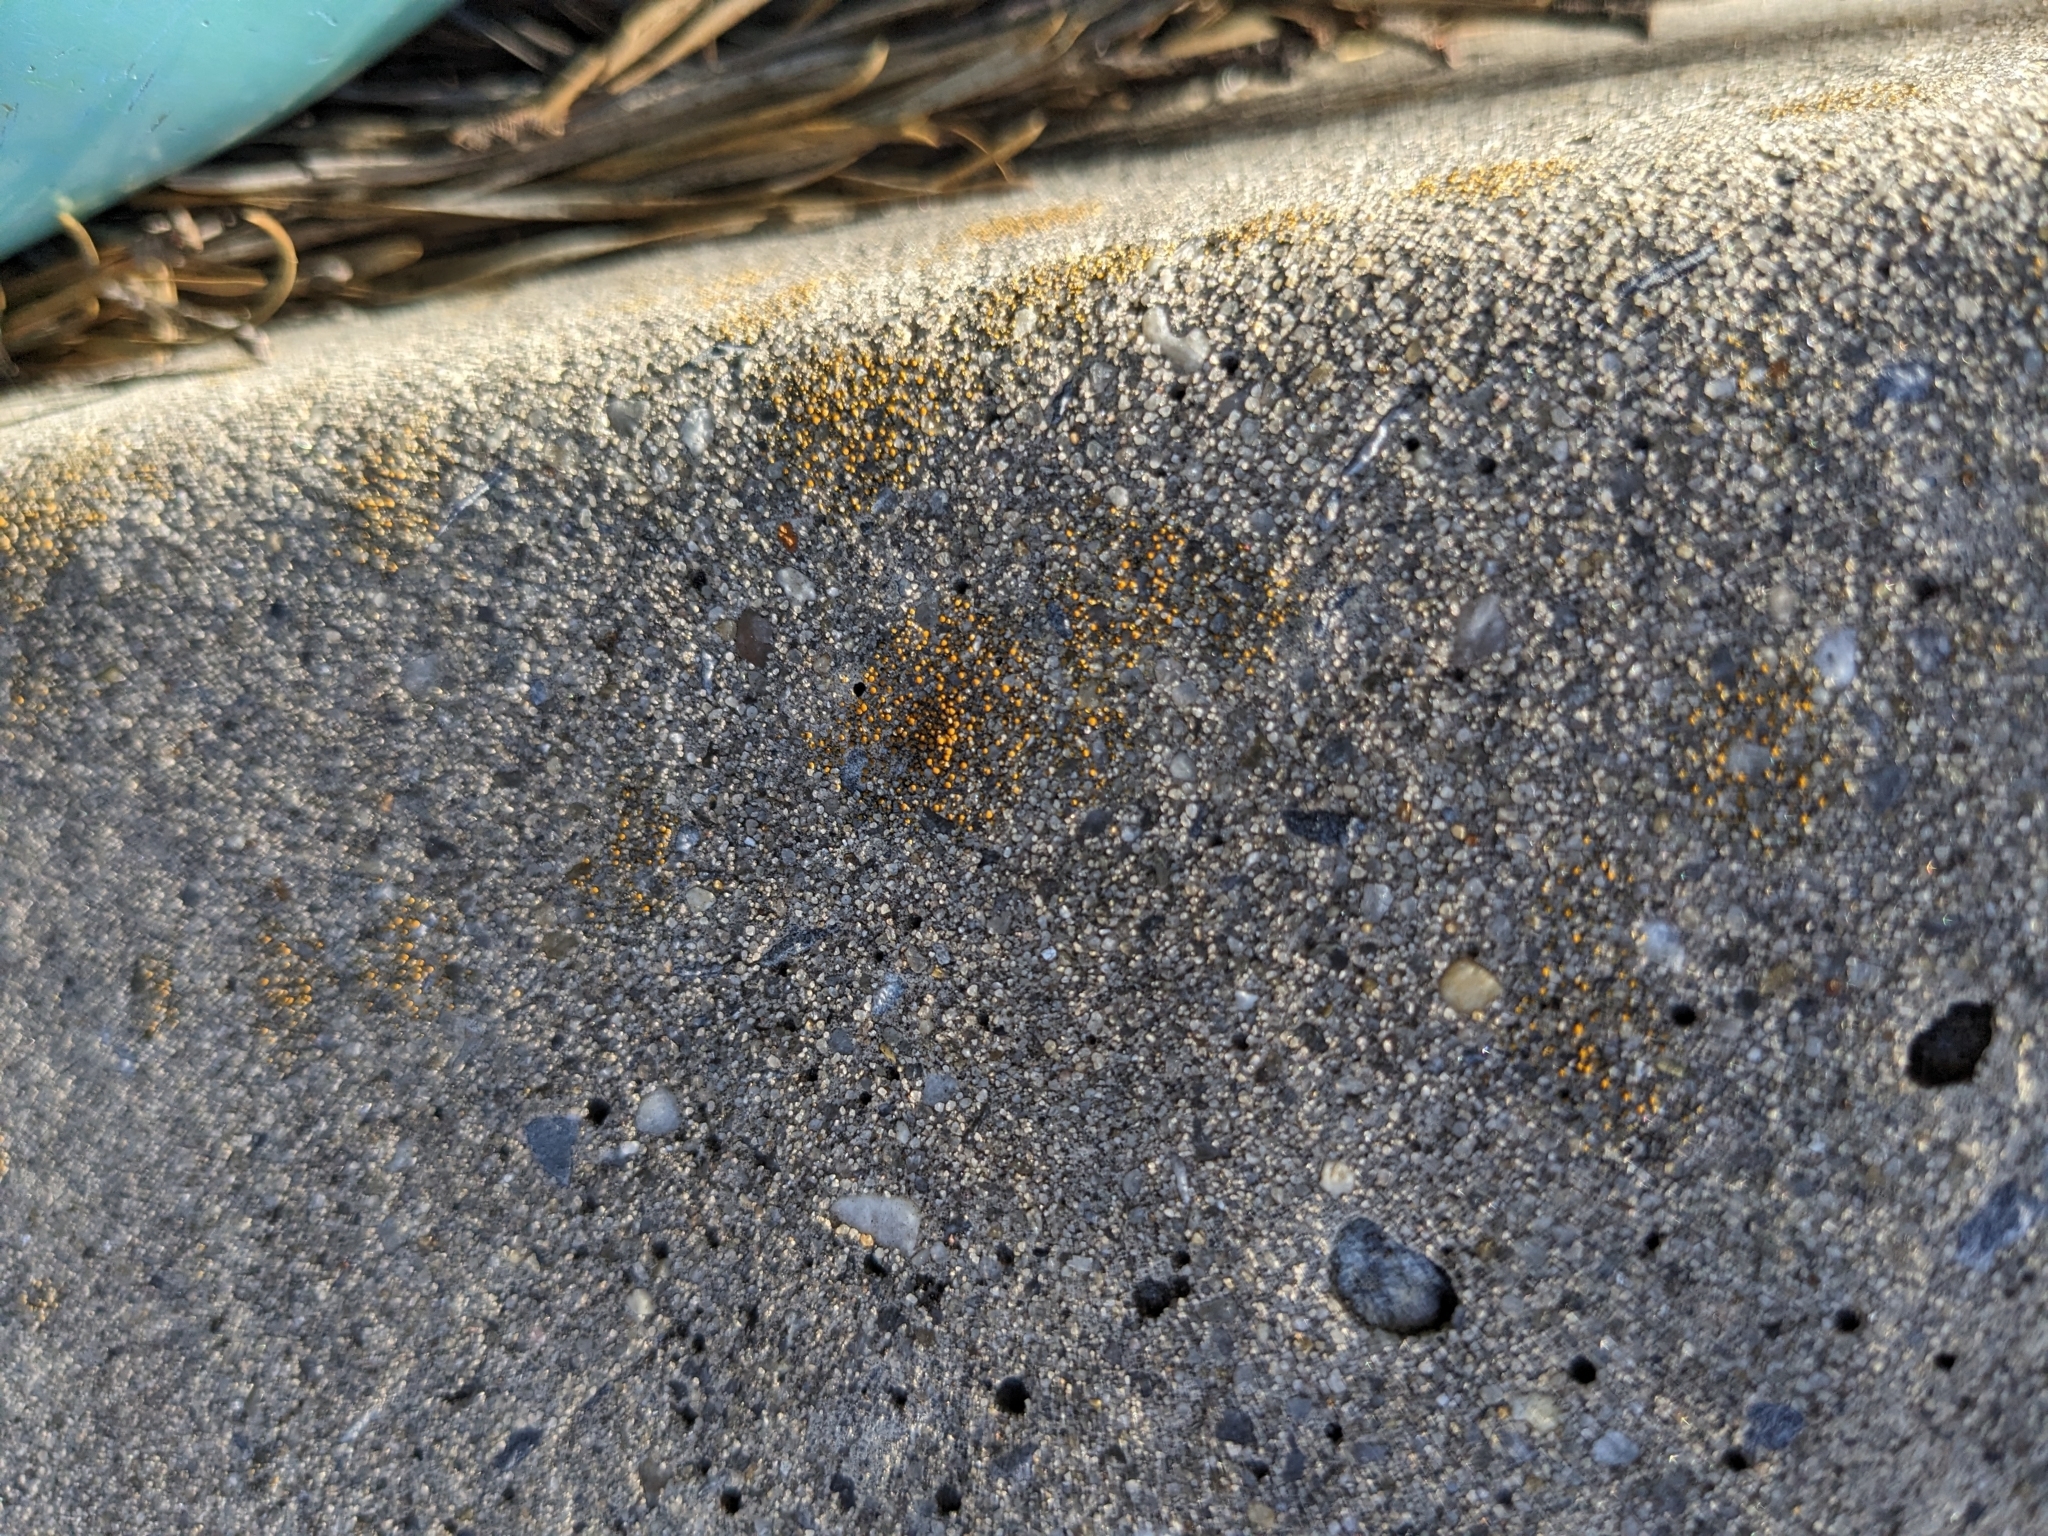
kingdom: Fungi
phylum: Ascomycota
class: Candelariomycetes
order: Candelariales
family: Candelariaceae
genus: Candelariella
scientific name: Candelariella aurella
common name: Hidden goldspeck lichen
